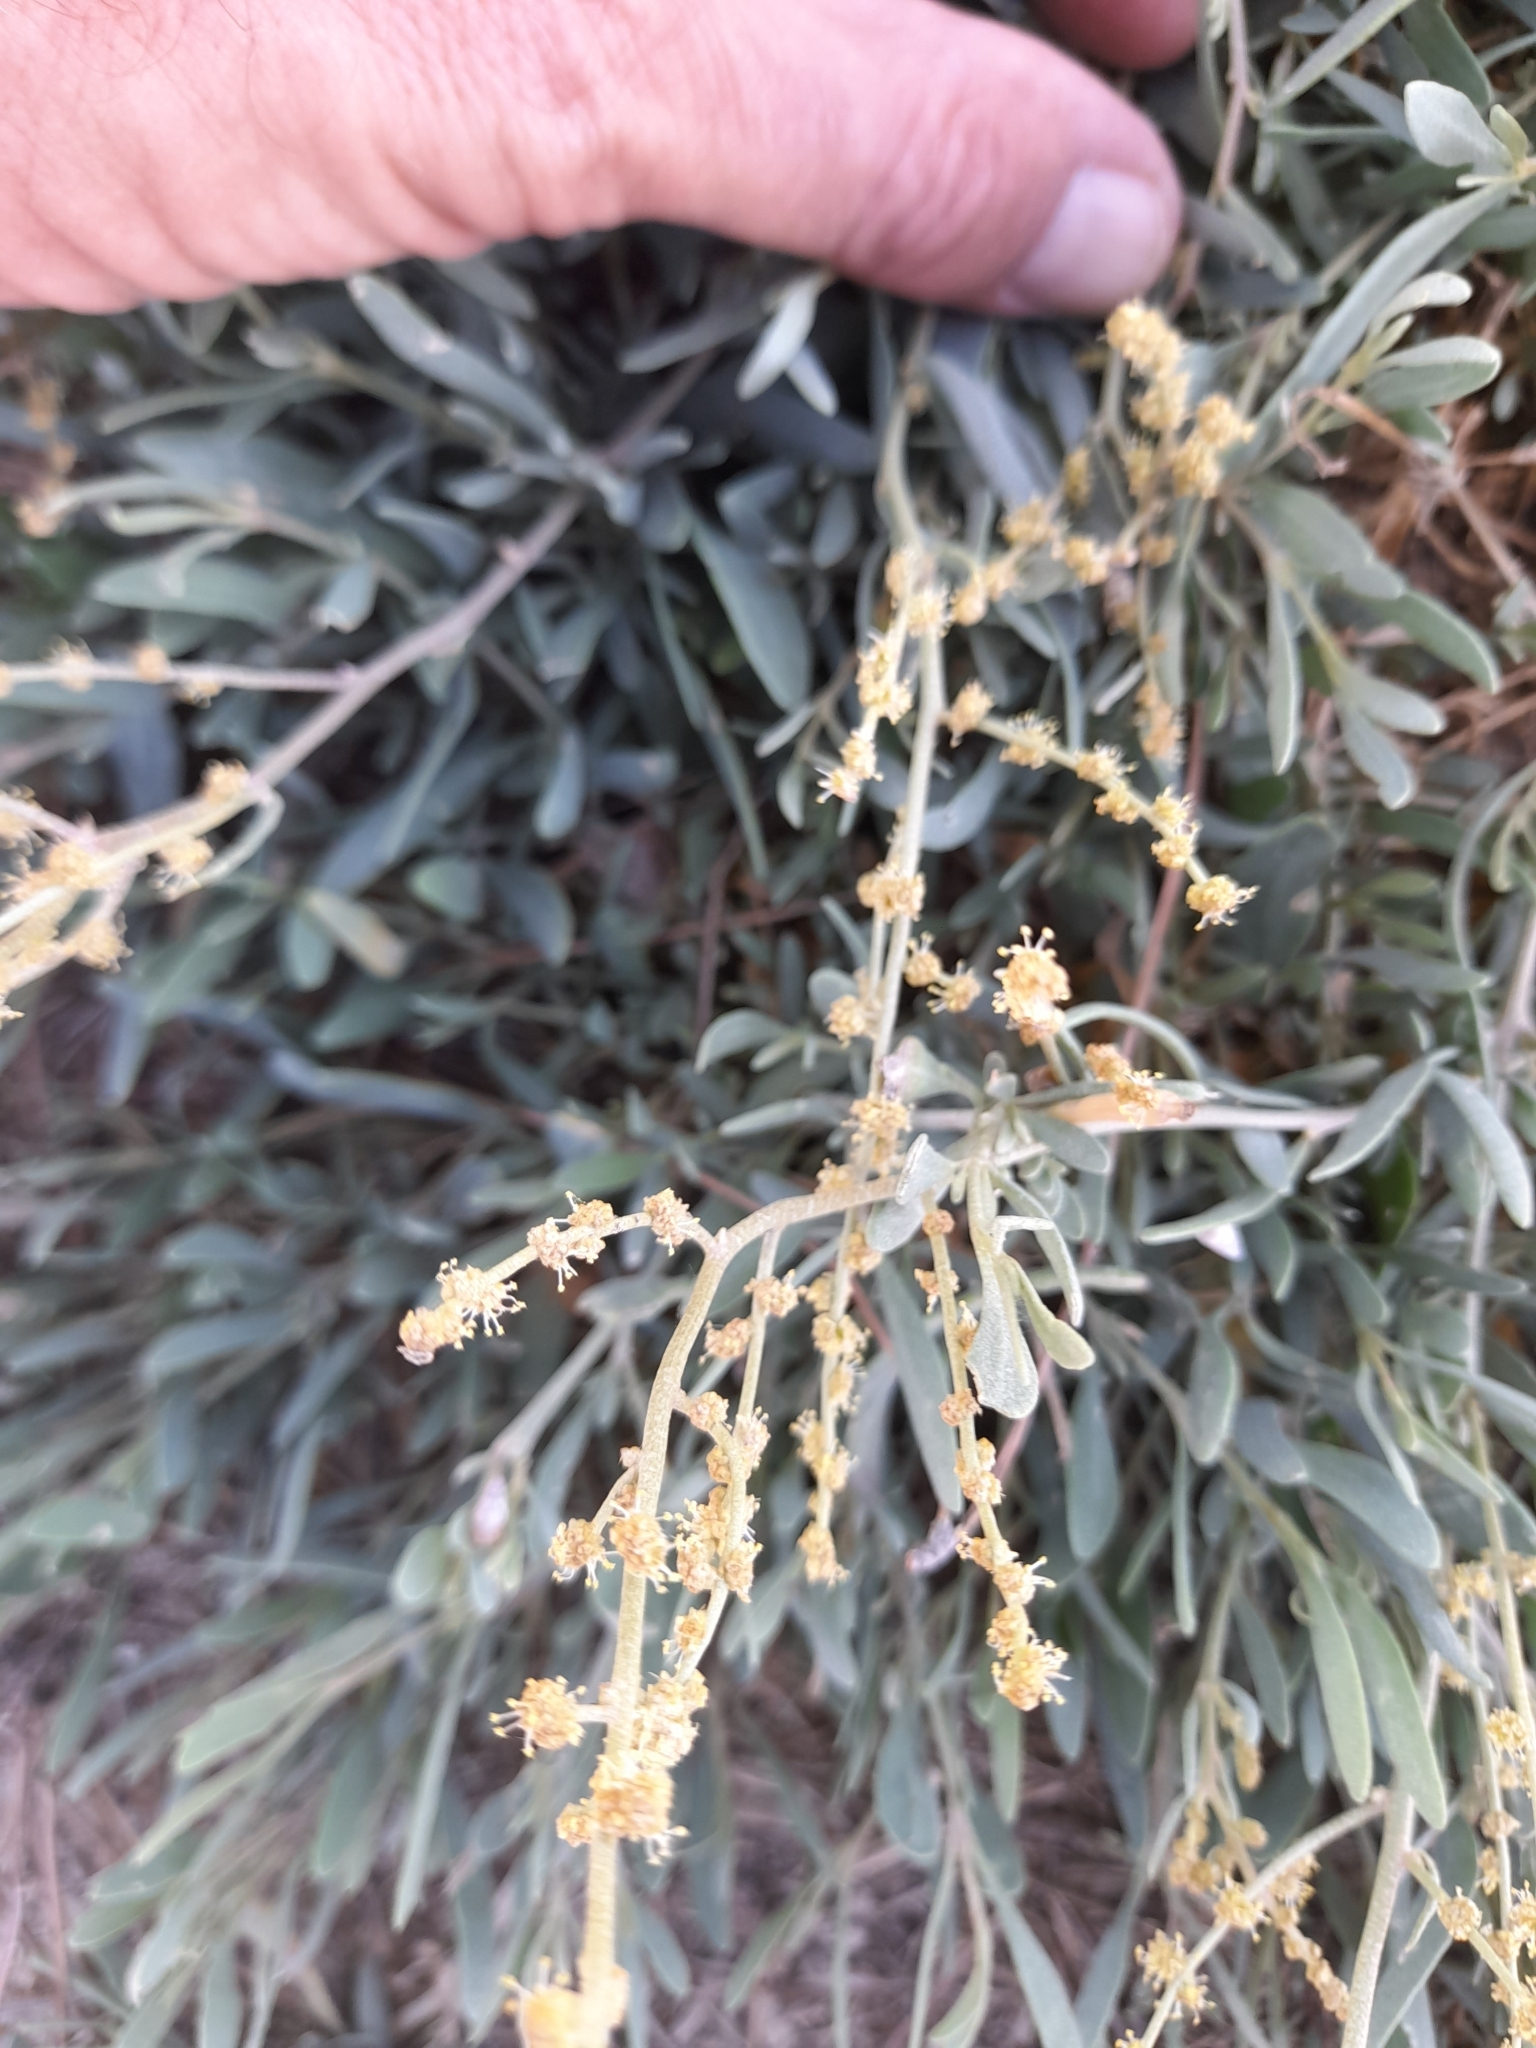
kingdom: Plantae
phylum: Tracheophyta
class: Magnoliopsida
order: Caryophyllales
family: Amaranthaceae
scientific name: Amaranthaceae
